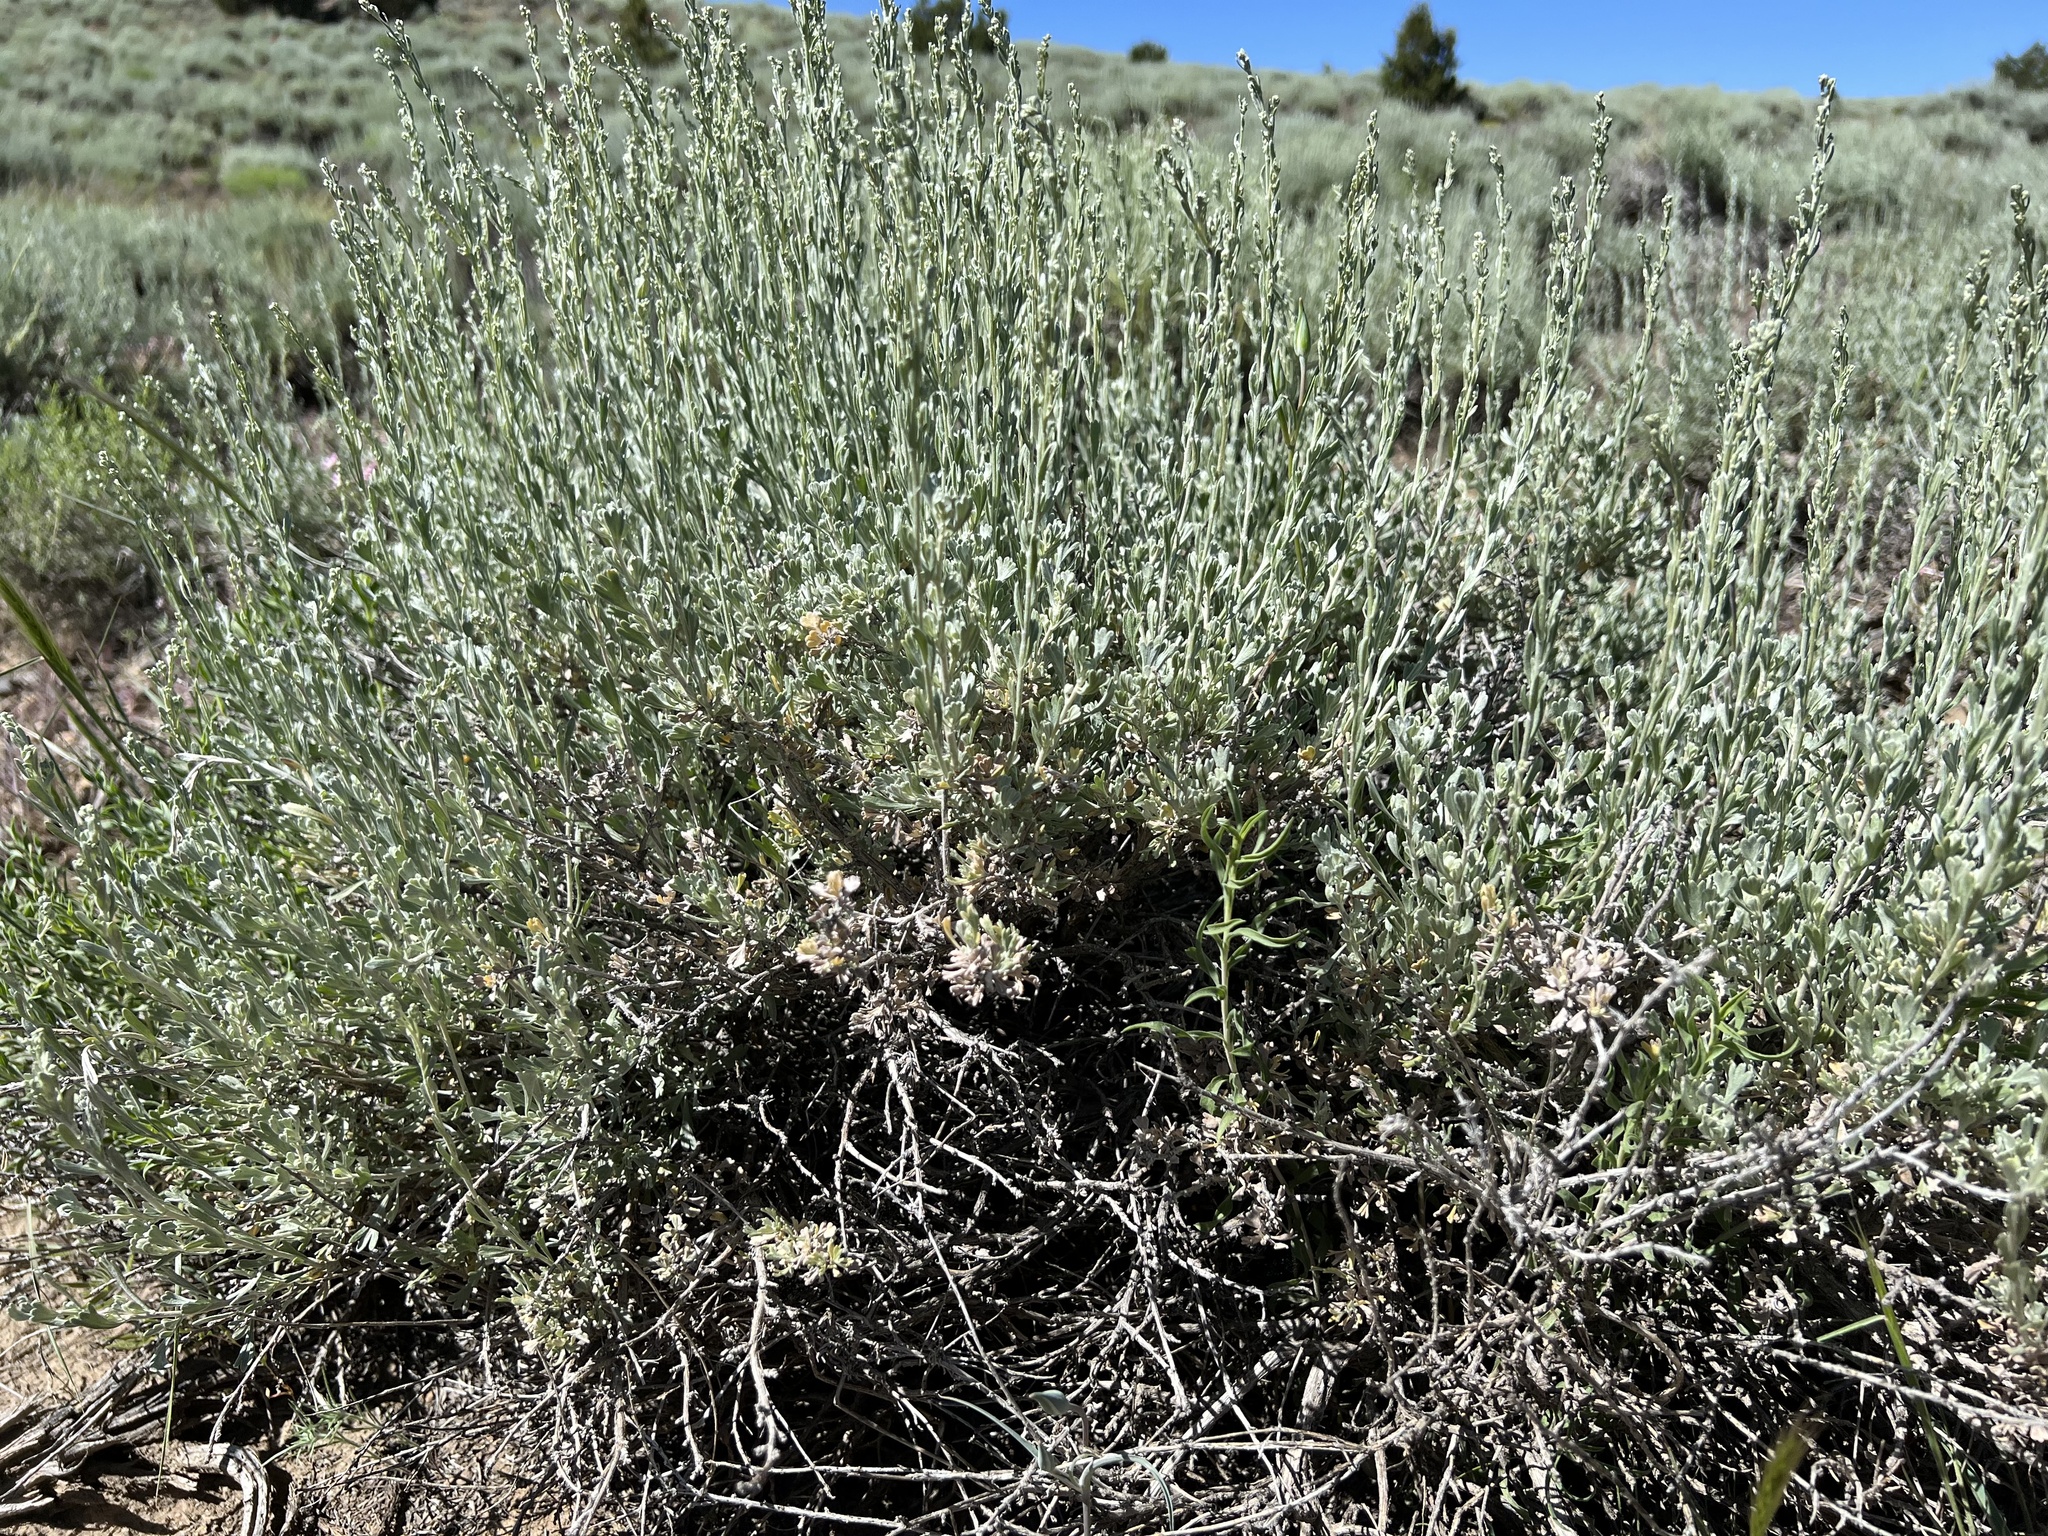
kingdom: Plantae
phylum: Tracheophyta
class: Magnoliopsida
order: Asterales
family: Asteraceae
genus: Artemisia
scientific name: Artemisia nova
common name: Black-sage
